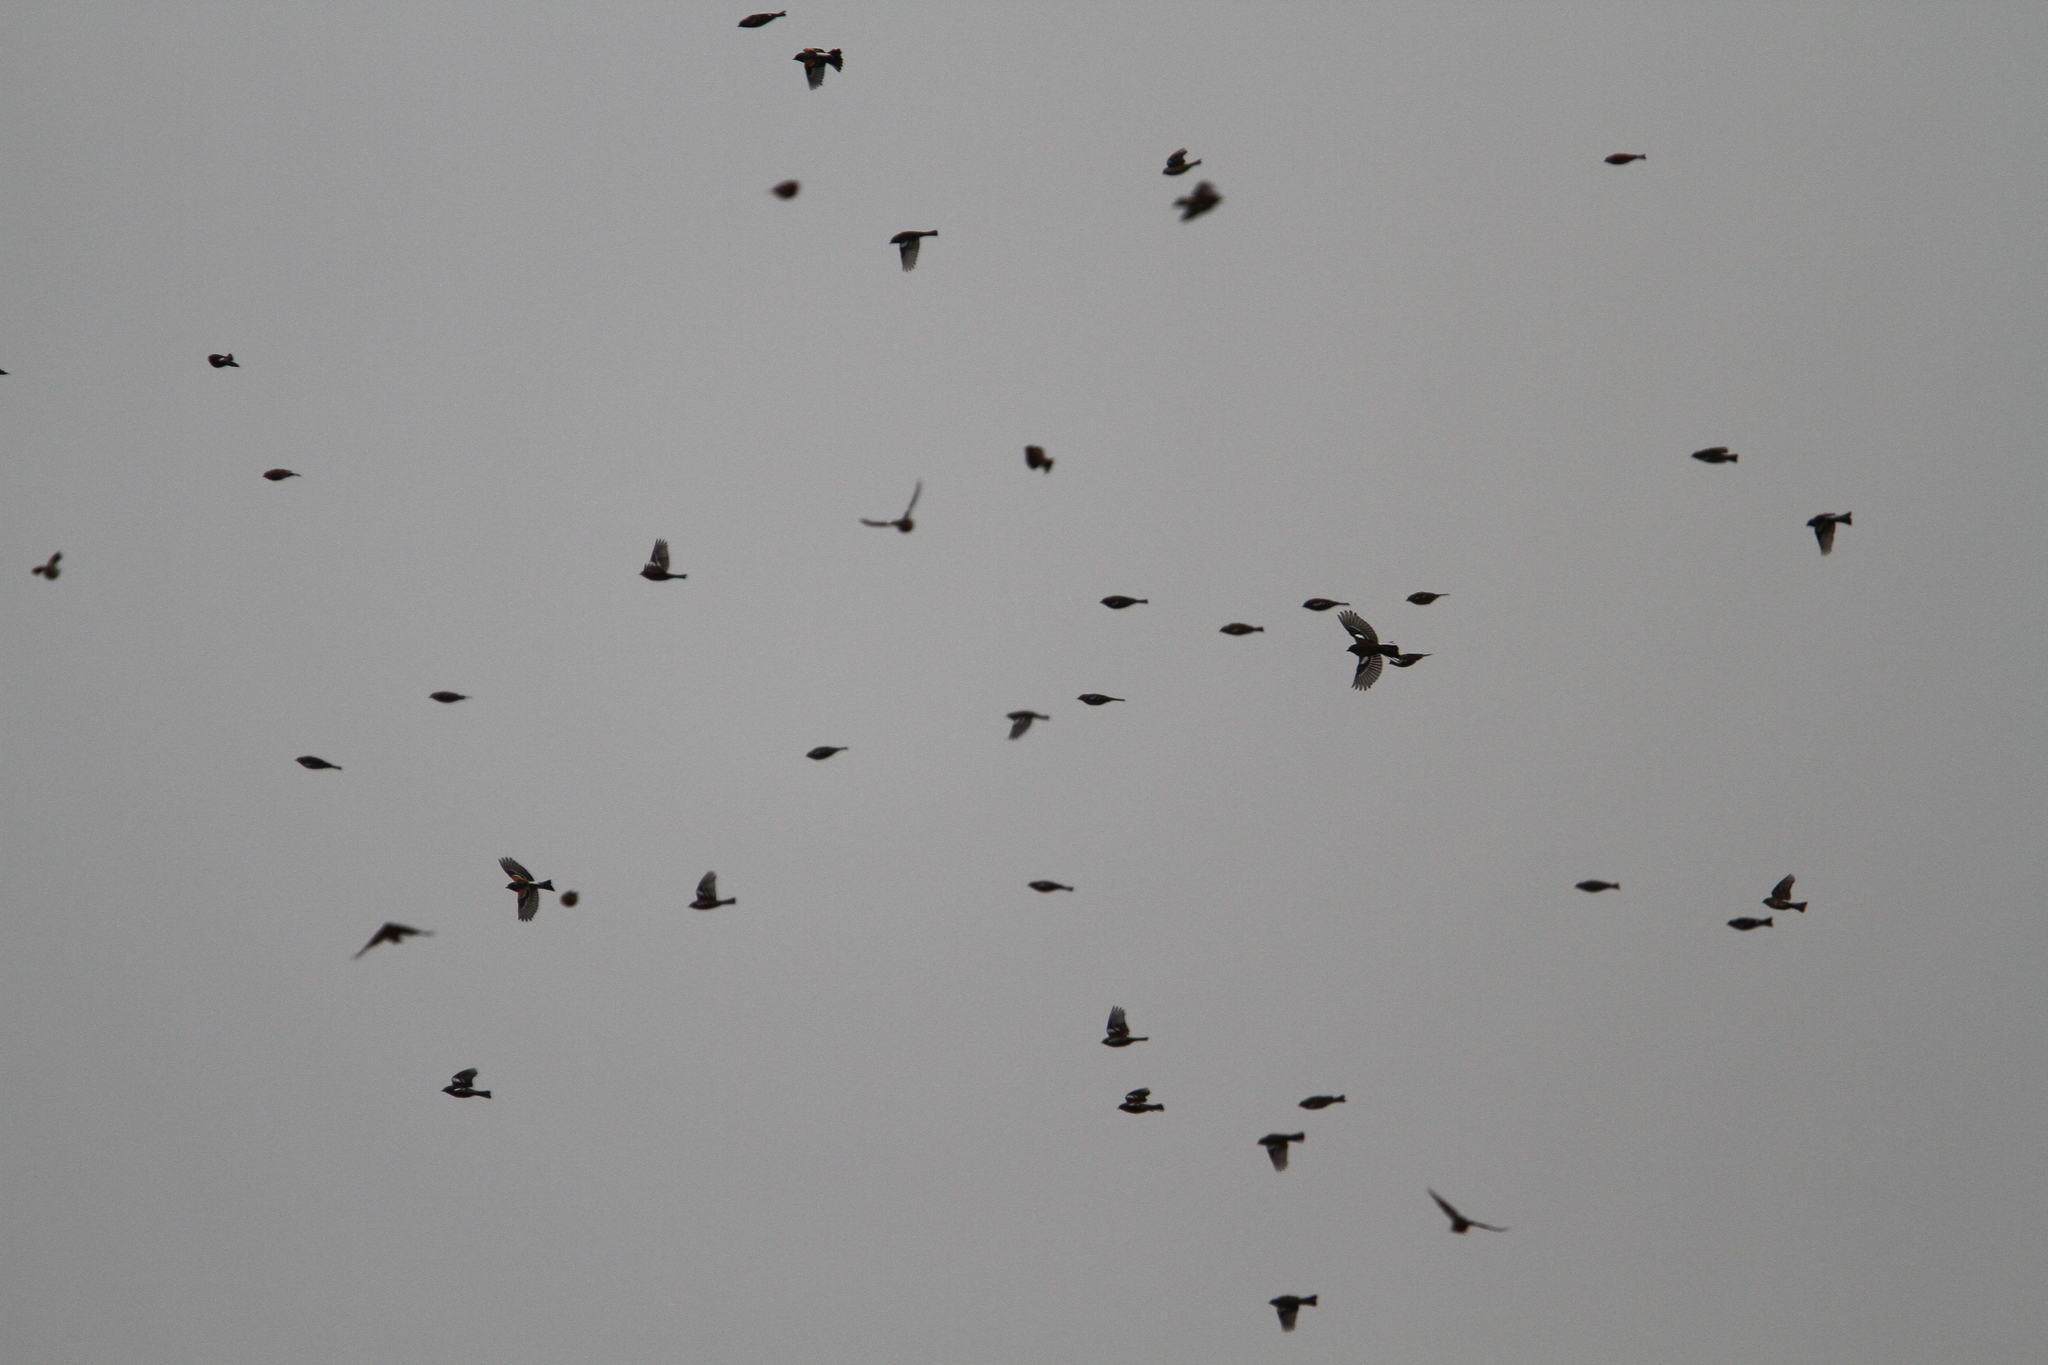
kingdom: Animalia
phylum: Chordata
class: Aves
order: Passeriformes
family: Fringillidae
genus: Fringilla
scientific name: Fringilla coelebs
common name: Common chaffinch
